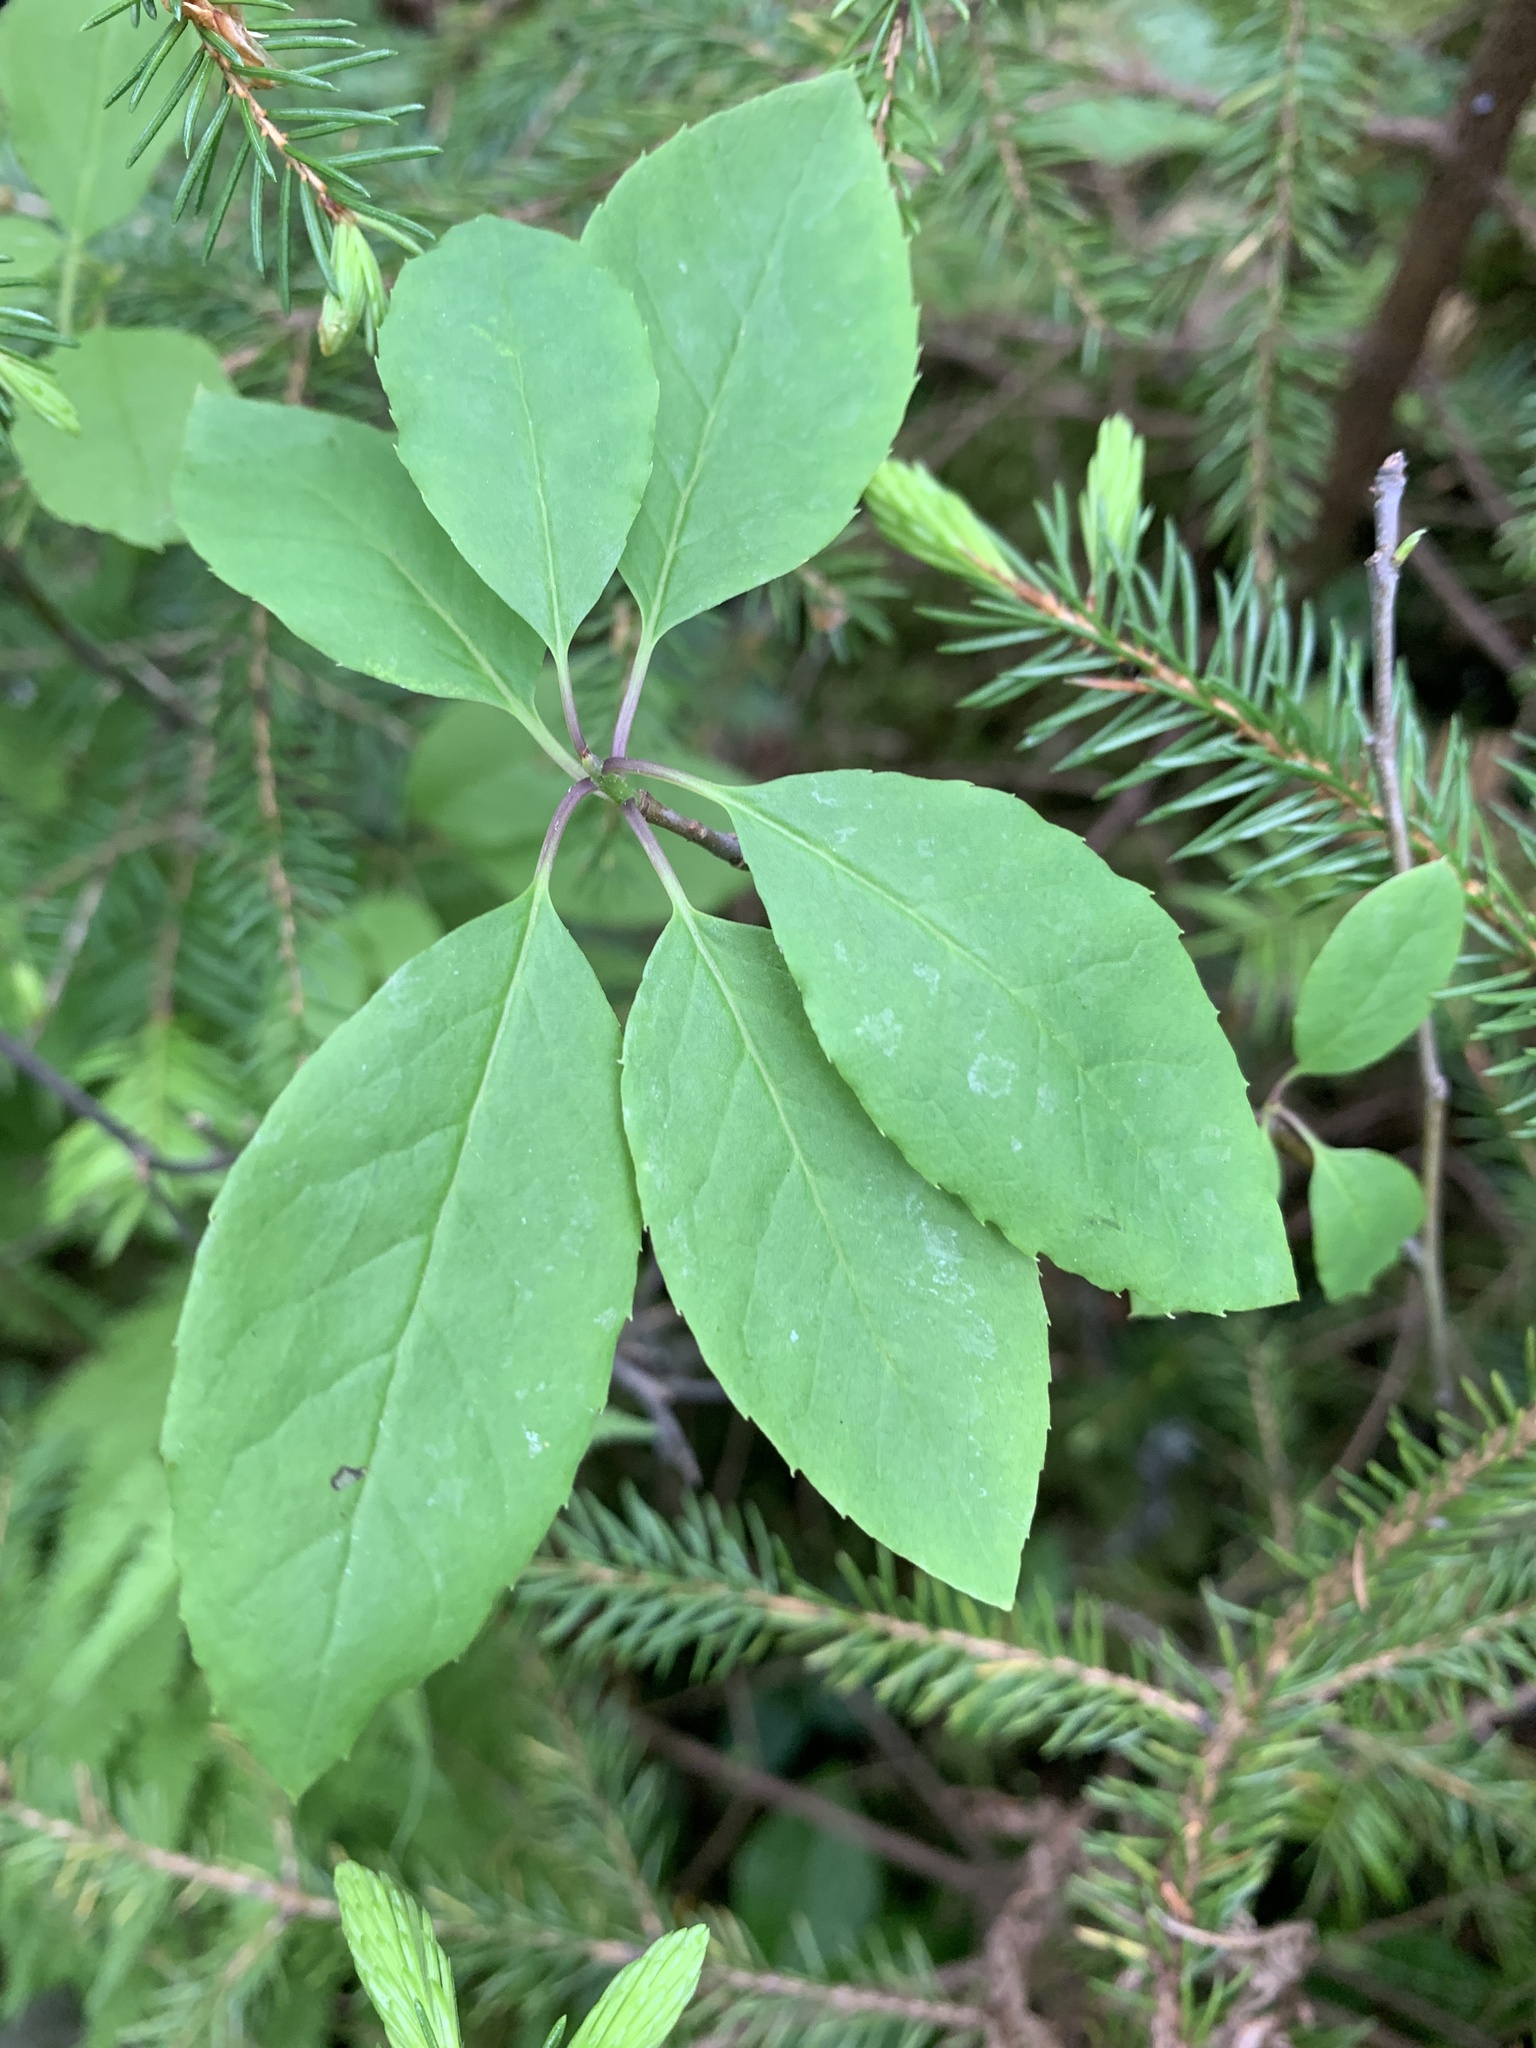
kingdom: Plantae
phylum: Tracheophyta
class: Magnoliopsida
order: Aquifoliales
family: Aquifoliaceae
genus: Ilex
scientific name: Ilex mucronata
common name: Catberry
